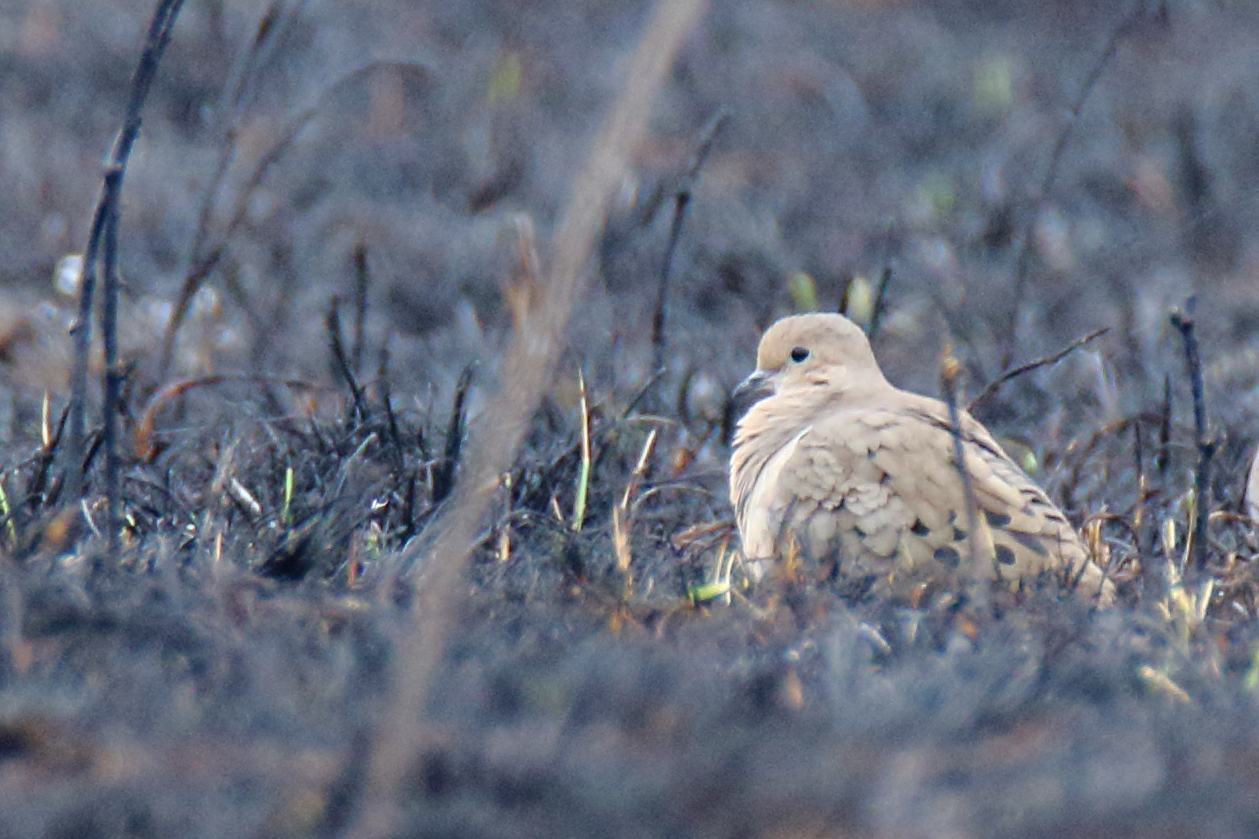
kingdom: Animalia
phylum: Chordata
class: Aves
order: Columbiformes
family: Columbidae
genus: Zenaida
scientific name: Zenaida macroura
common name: Mourning dove
